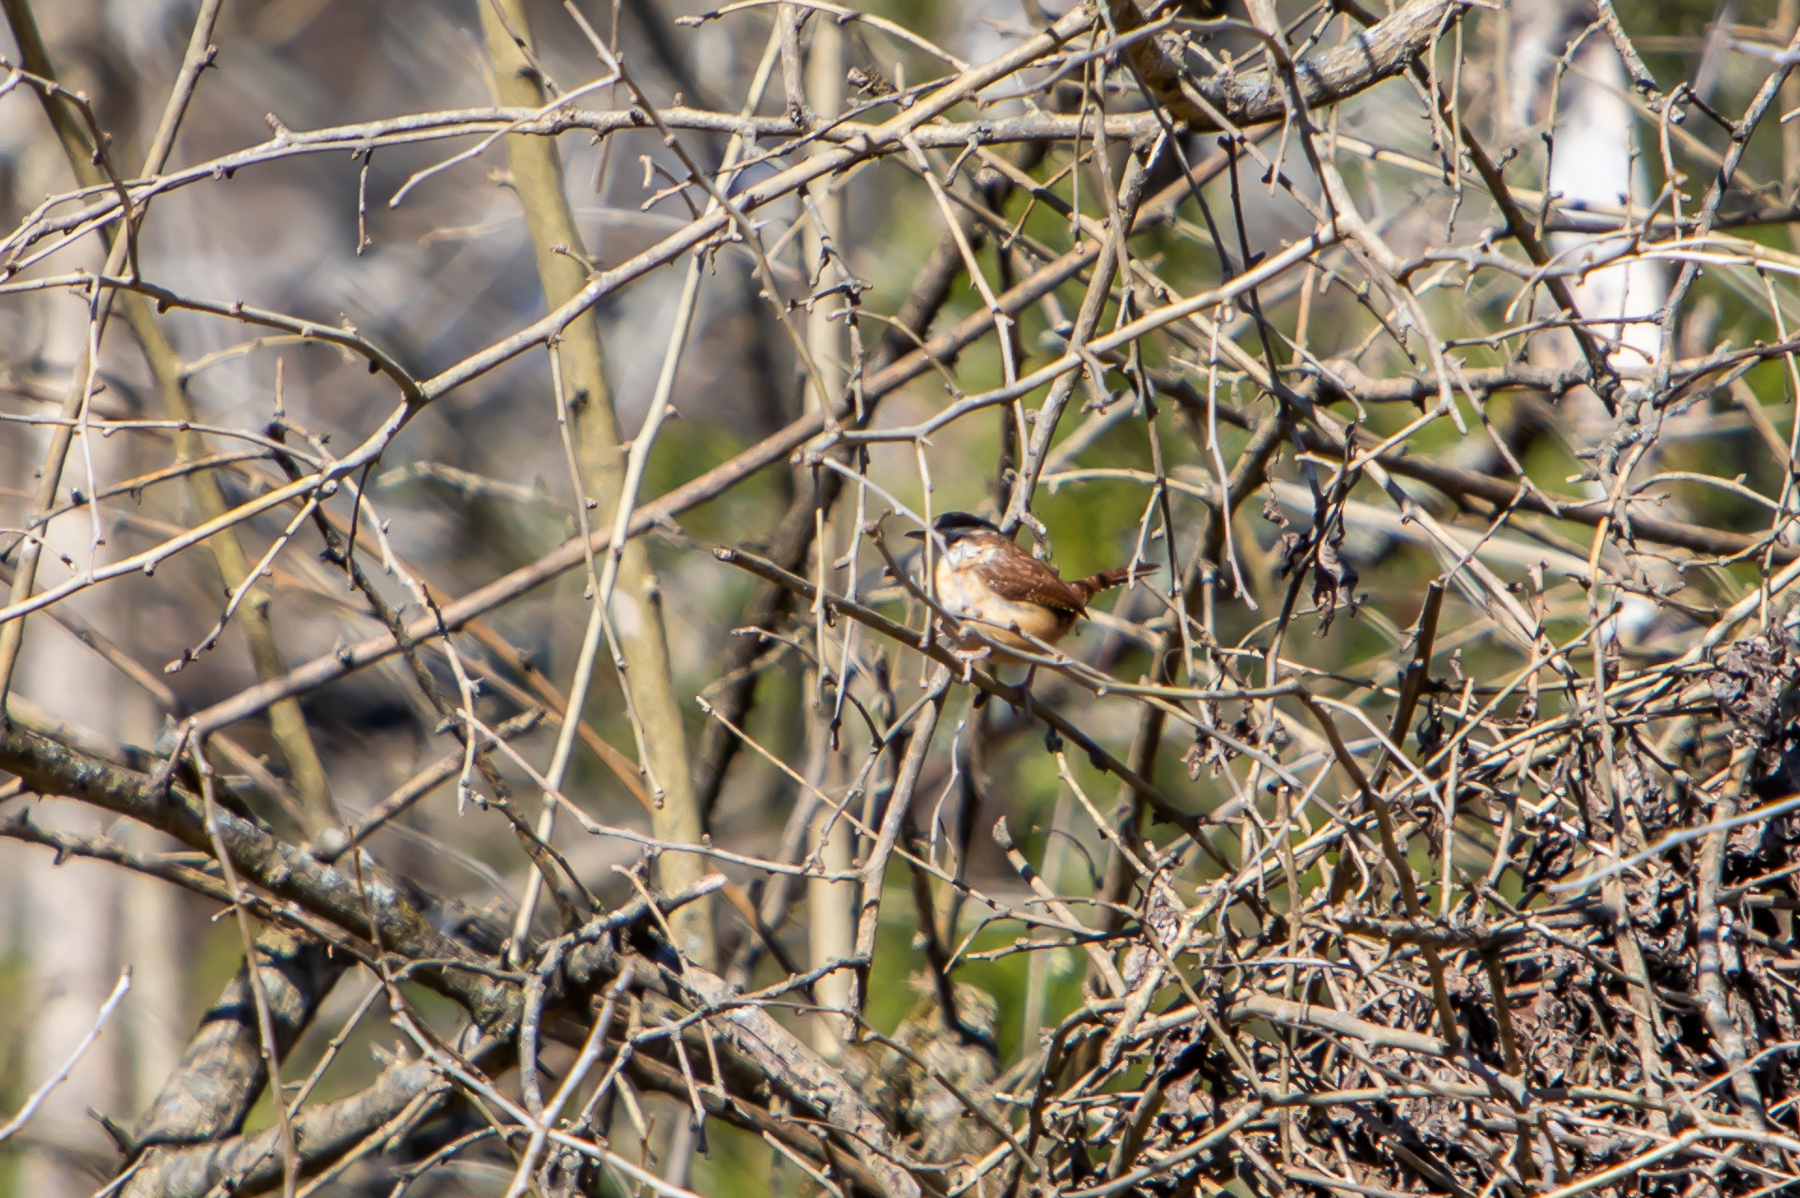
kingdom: Animalia
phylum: Chordata
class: Aves
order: Passeriformes
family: Troglodytidae
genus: Thryothorus
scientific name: Thryothorus ludovicianus
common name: Carolina wren
